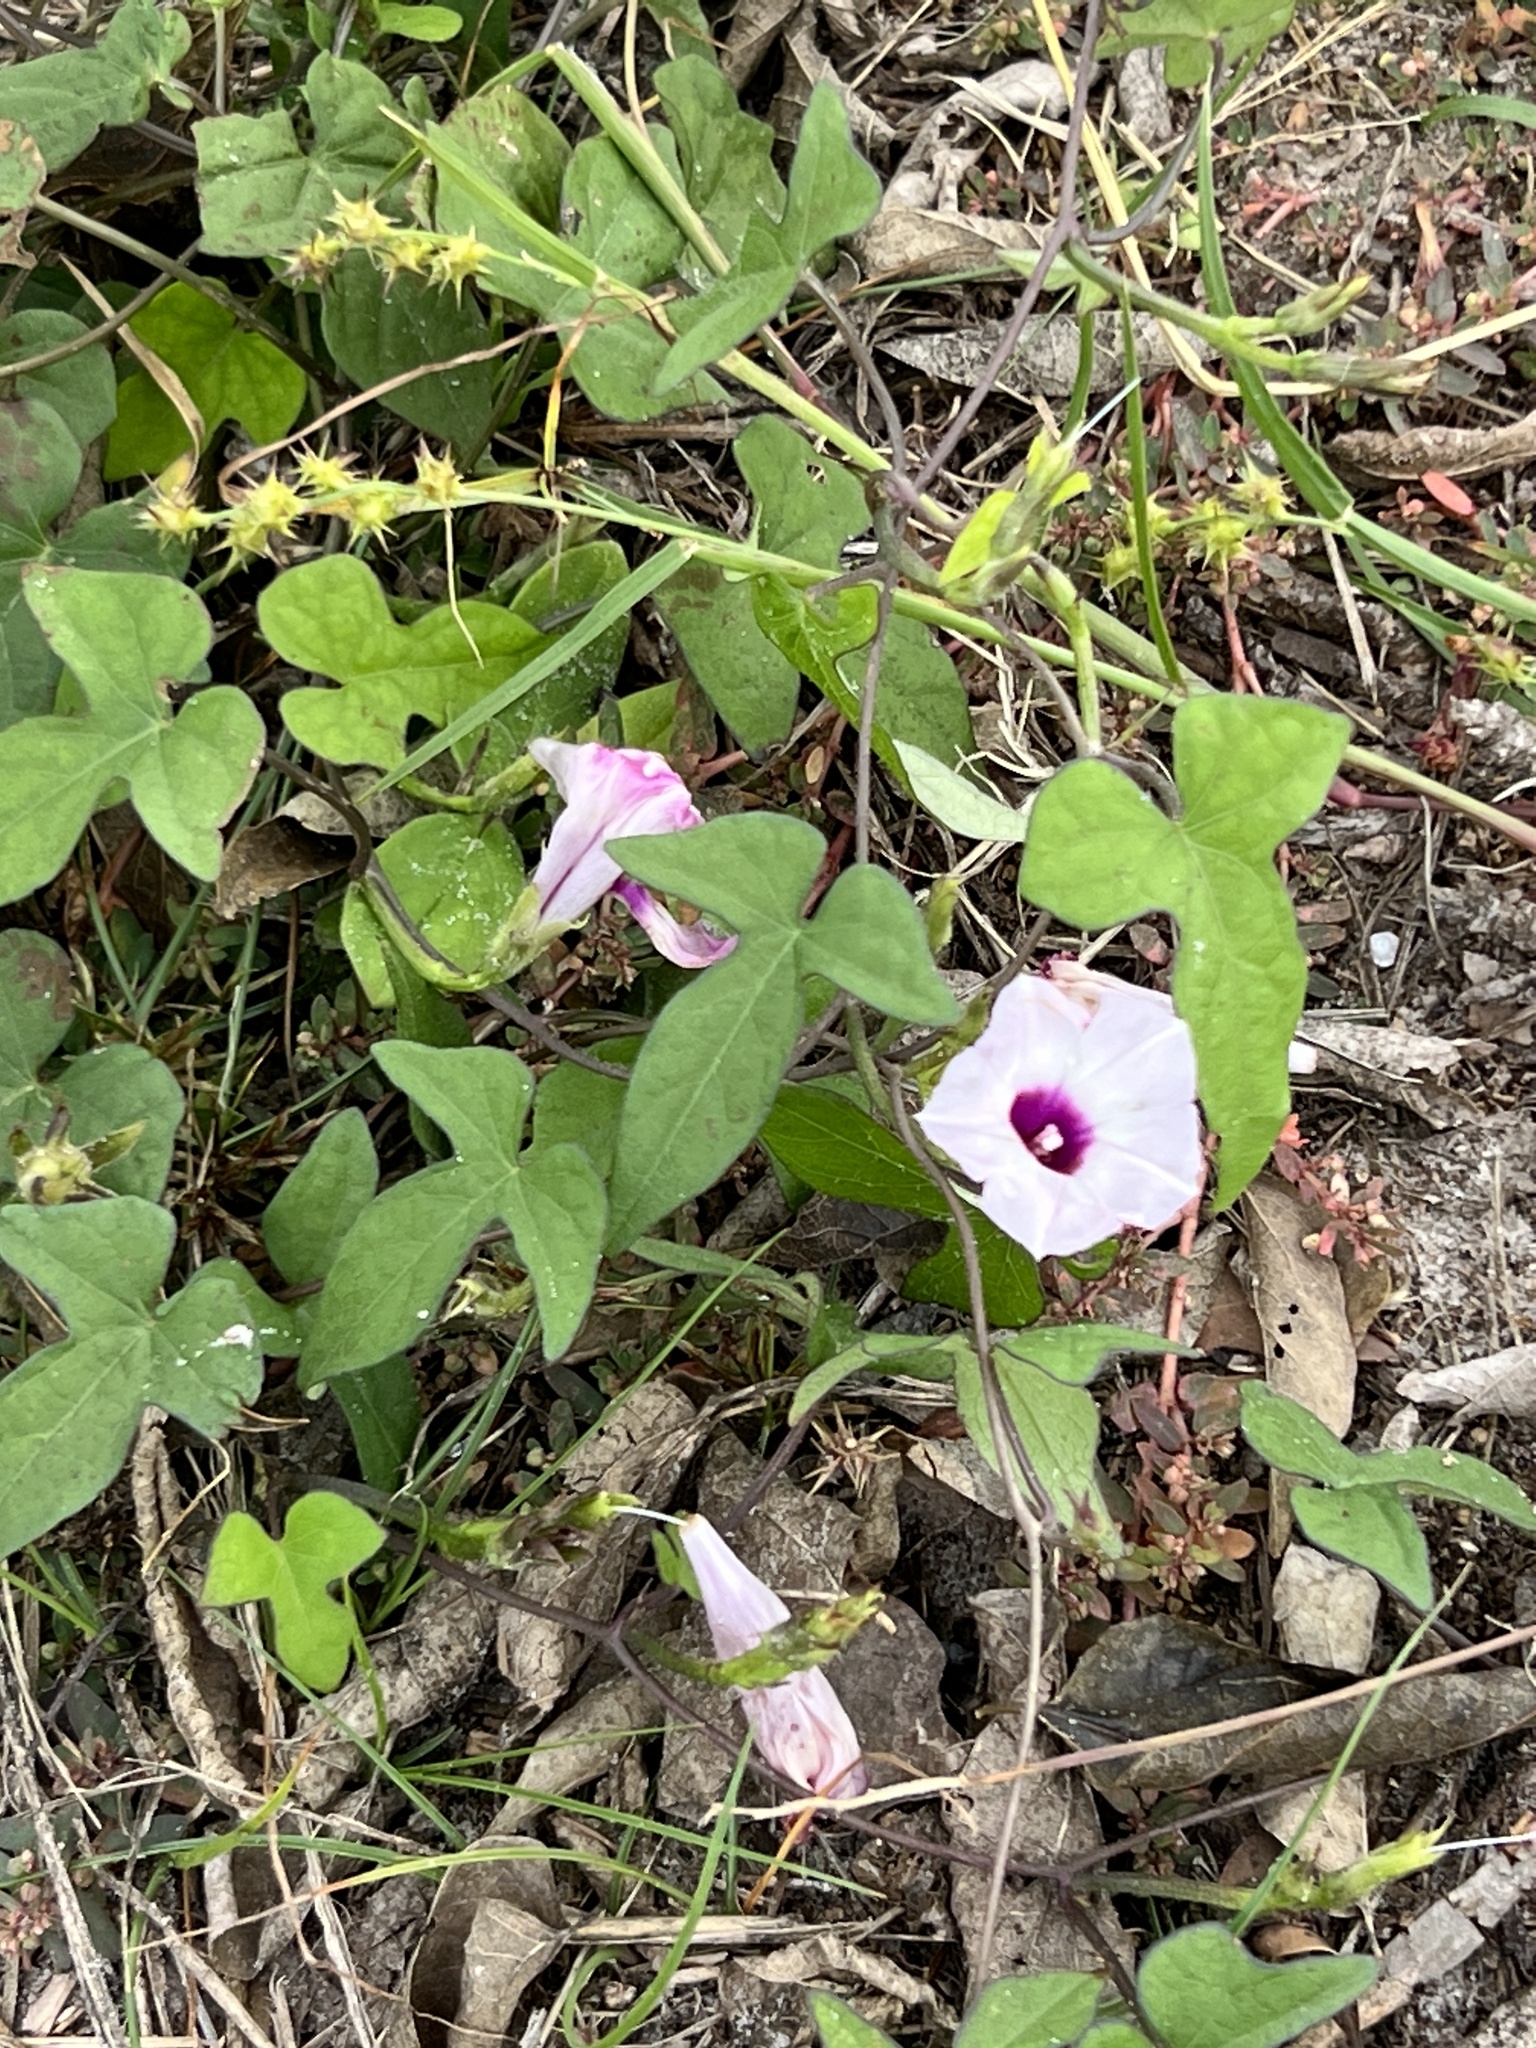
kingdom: Plantae
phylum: Tracheophyta
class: Magnoliopsida
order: Solanales
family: Convolvulaceae
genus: Ipomoea
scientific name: Ipomoea cordatotriloba
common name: Cotton morning glory
